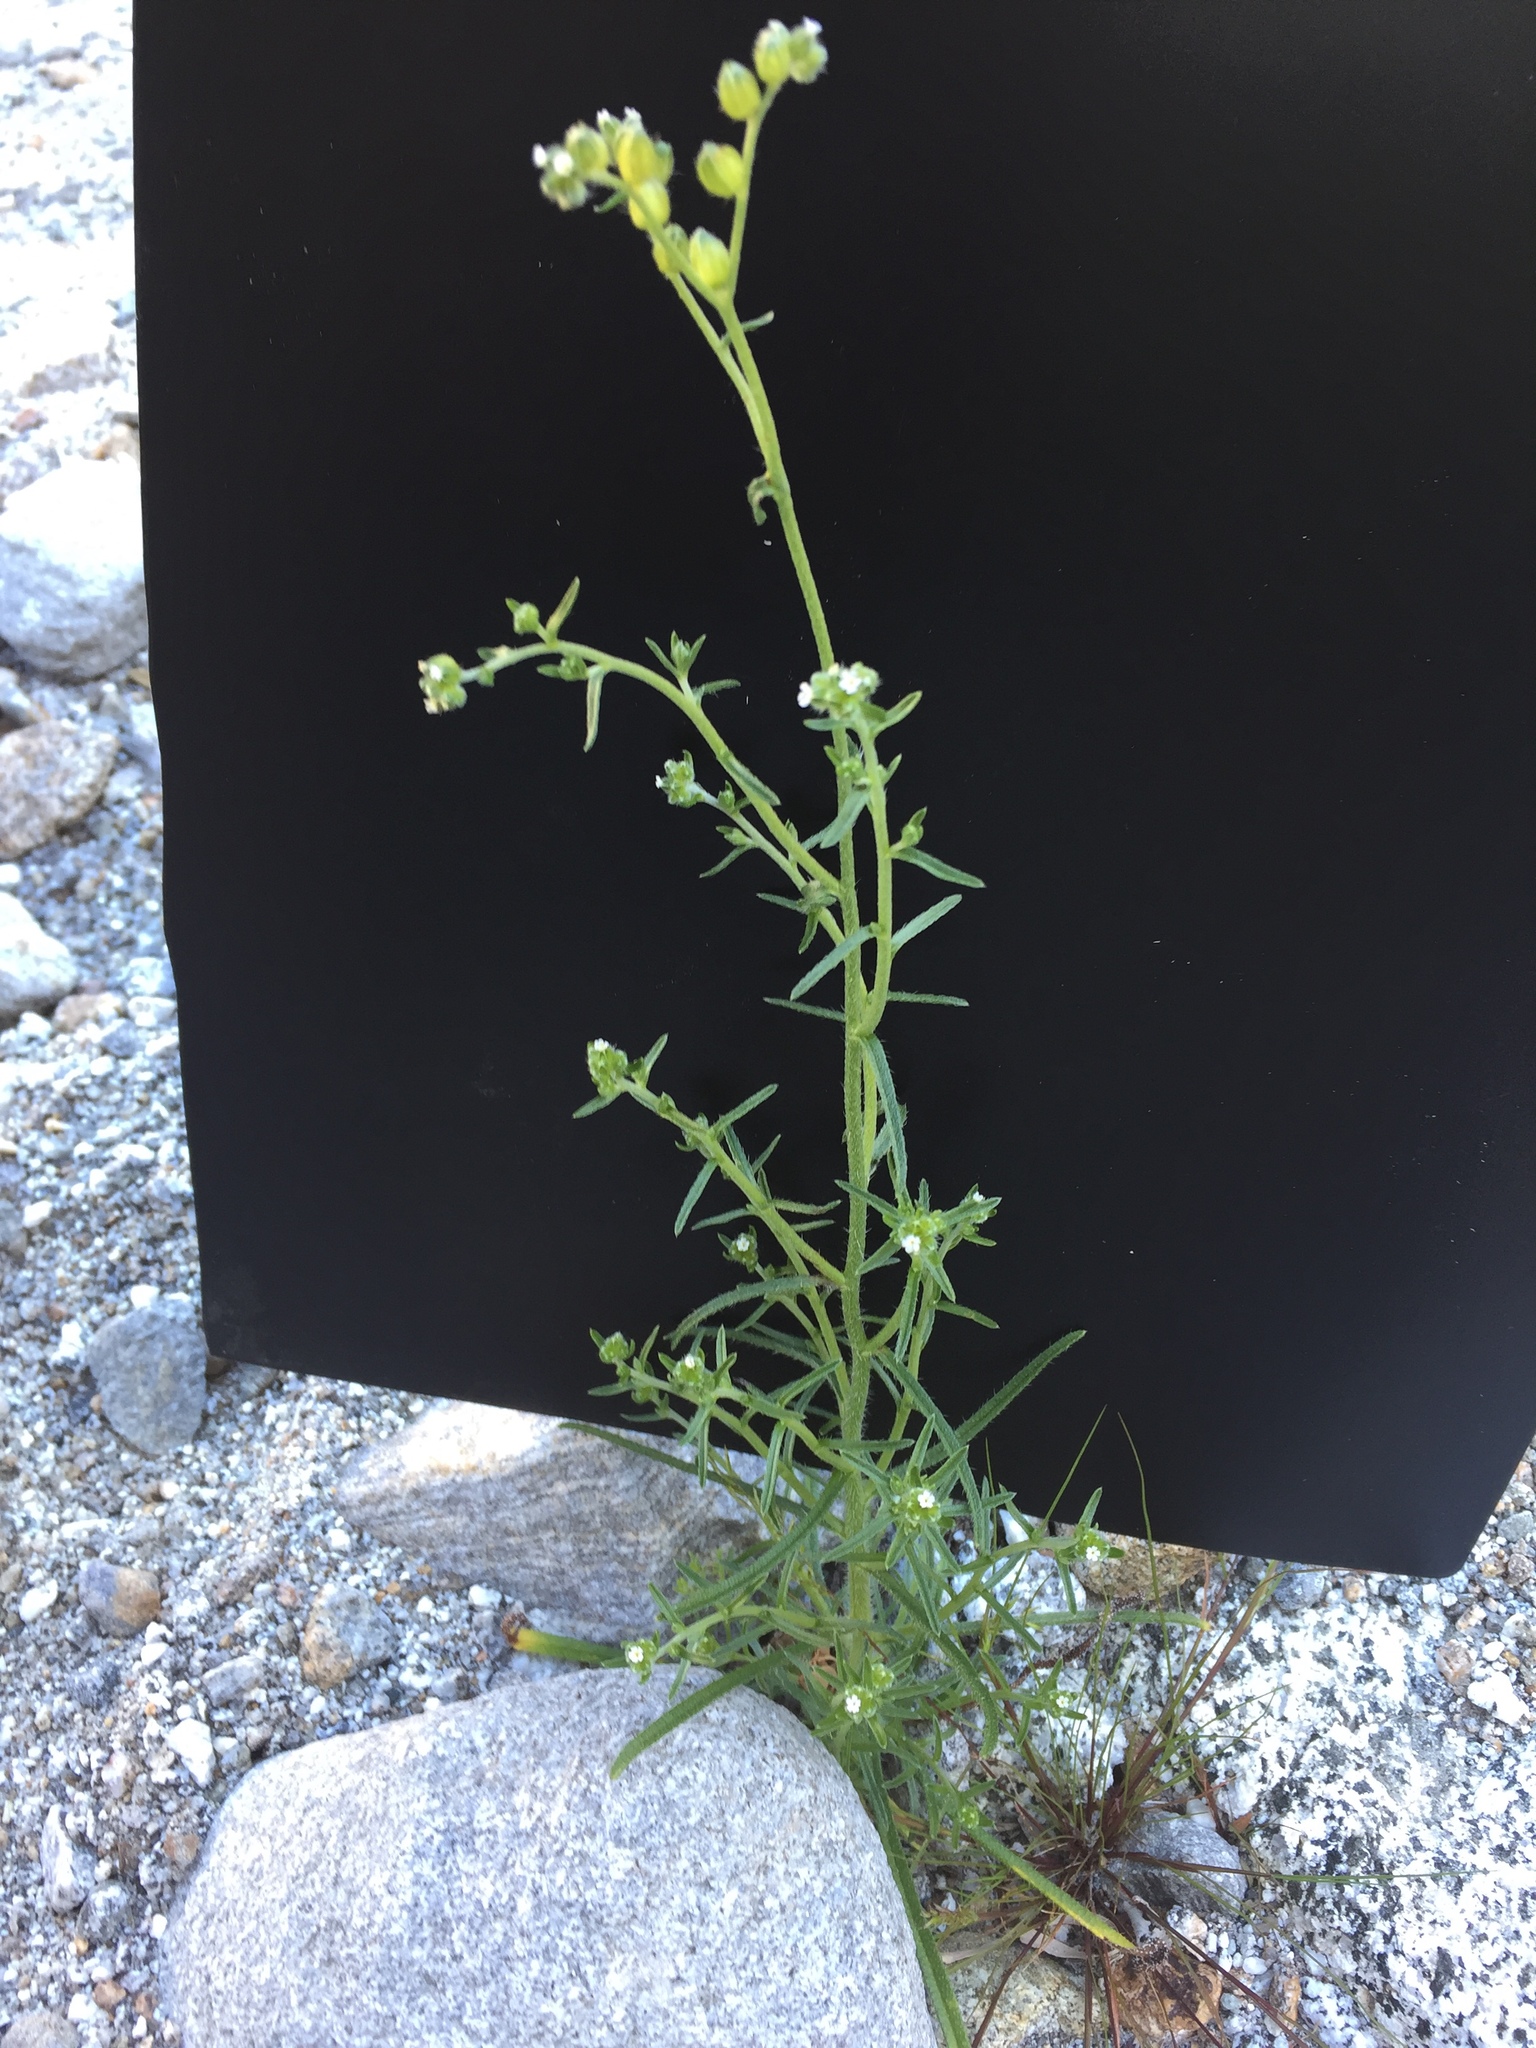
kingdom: Plantae
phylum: Tracheophyta
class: Magnoliopsida
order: Boraginales
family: Boraginaceae
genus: Cryptantha
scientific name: Cryptantha pterocarya
